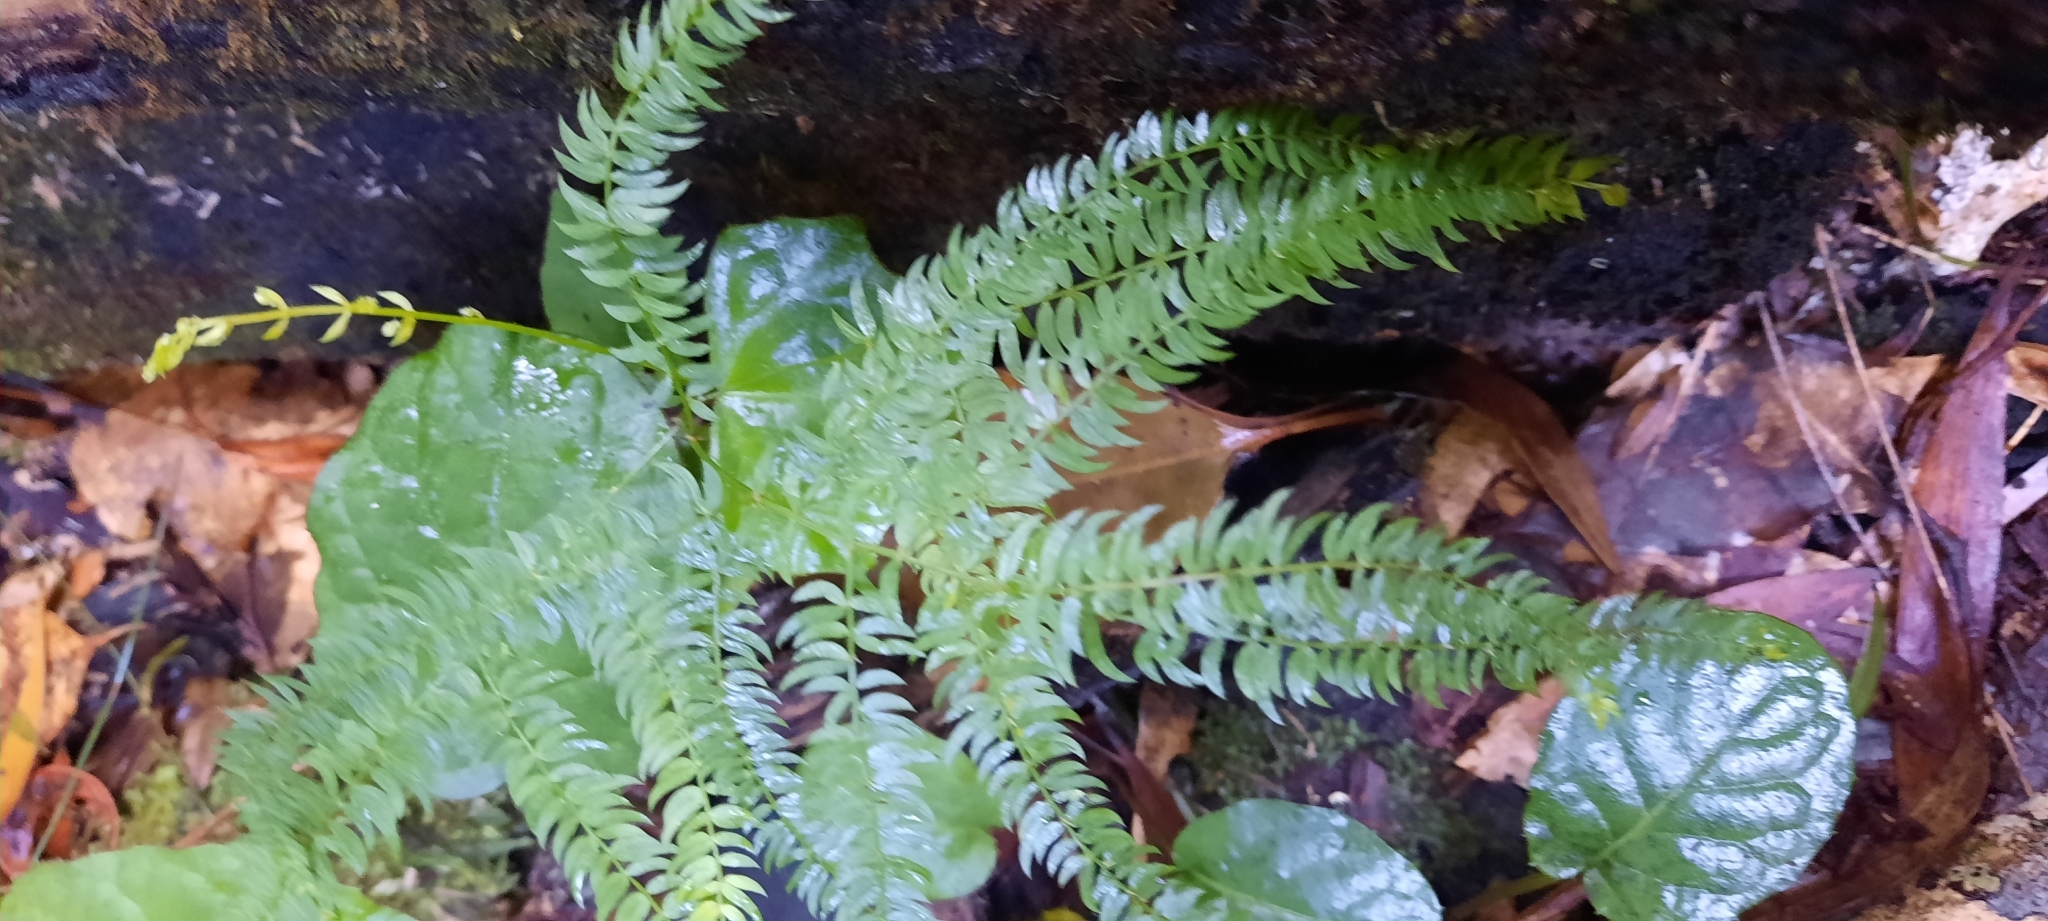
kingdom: Plantae
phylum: Tracheophyta
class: Liliopsida
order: Asparagales
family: Asparagaceae
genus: Asparagus
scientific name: Asparagus scandens
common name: Asparagus-fern
